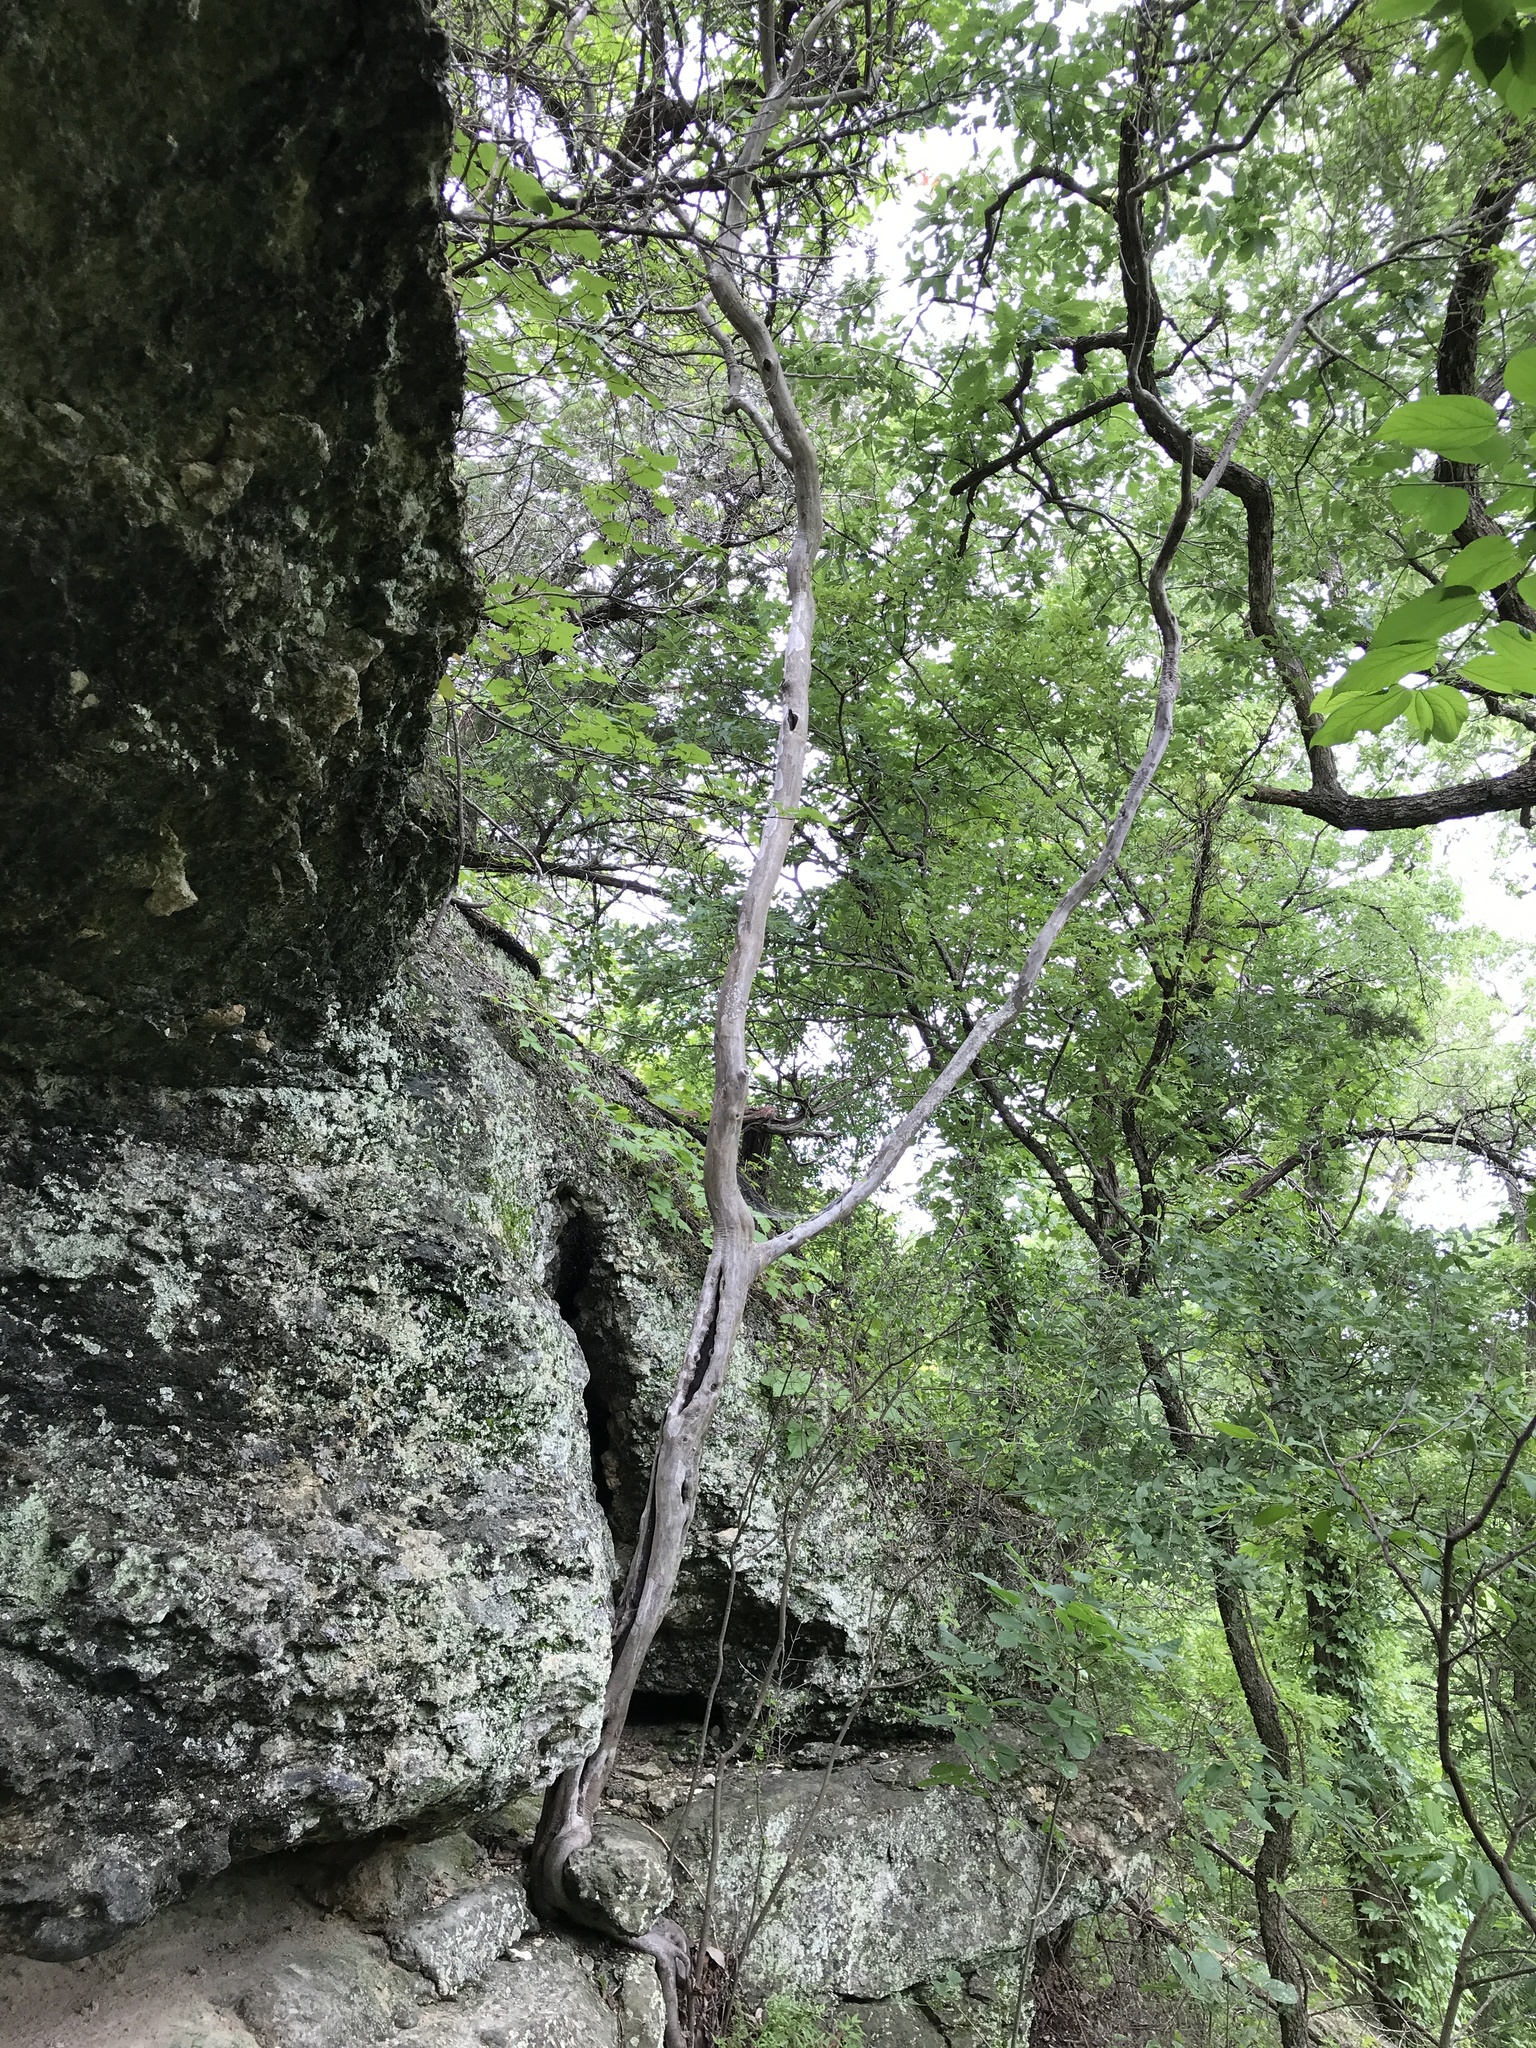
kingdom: Plantae
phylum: Tracheophyta
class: Magnoliopsida
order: Ericales
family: Ebenaceae
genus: Diospyros
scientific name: Diospyros texana
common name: Texas persimmon
